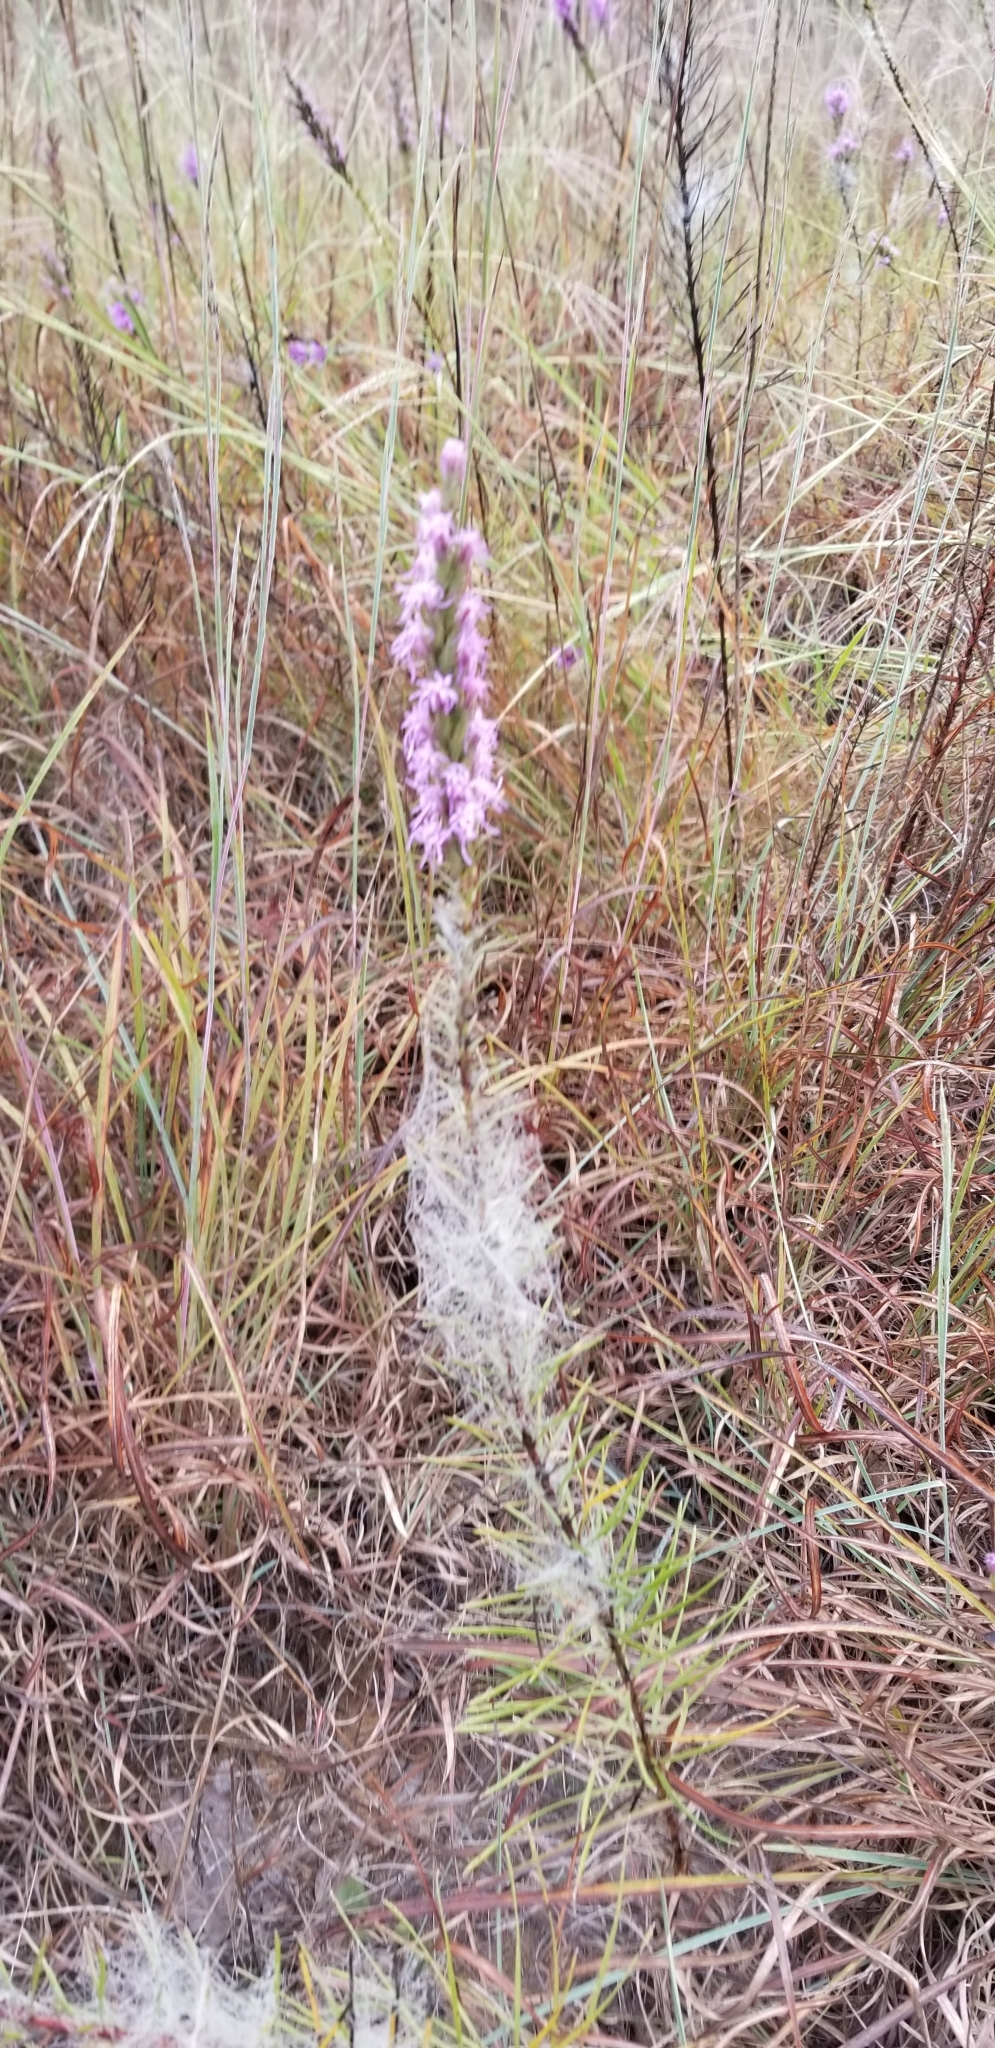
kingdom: Plantae
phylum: Tracheophyta
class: Magnoliopsida
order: Asterales
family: Asteraceae
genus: Liatris
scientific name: Liatris punctata
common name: Dotted gayfeather
